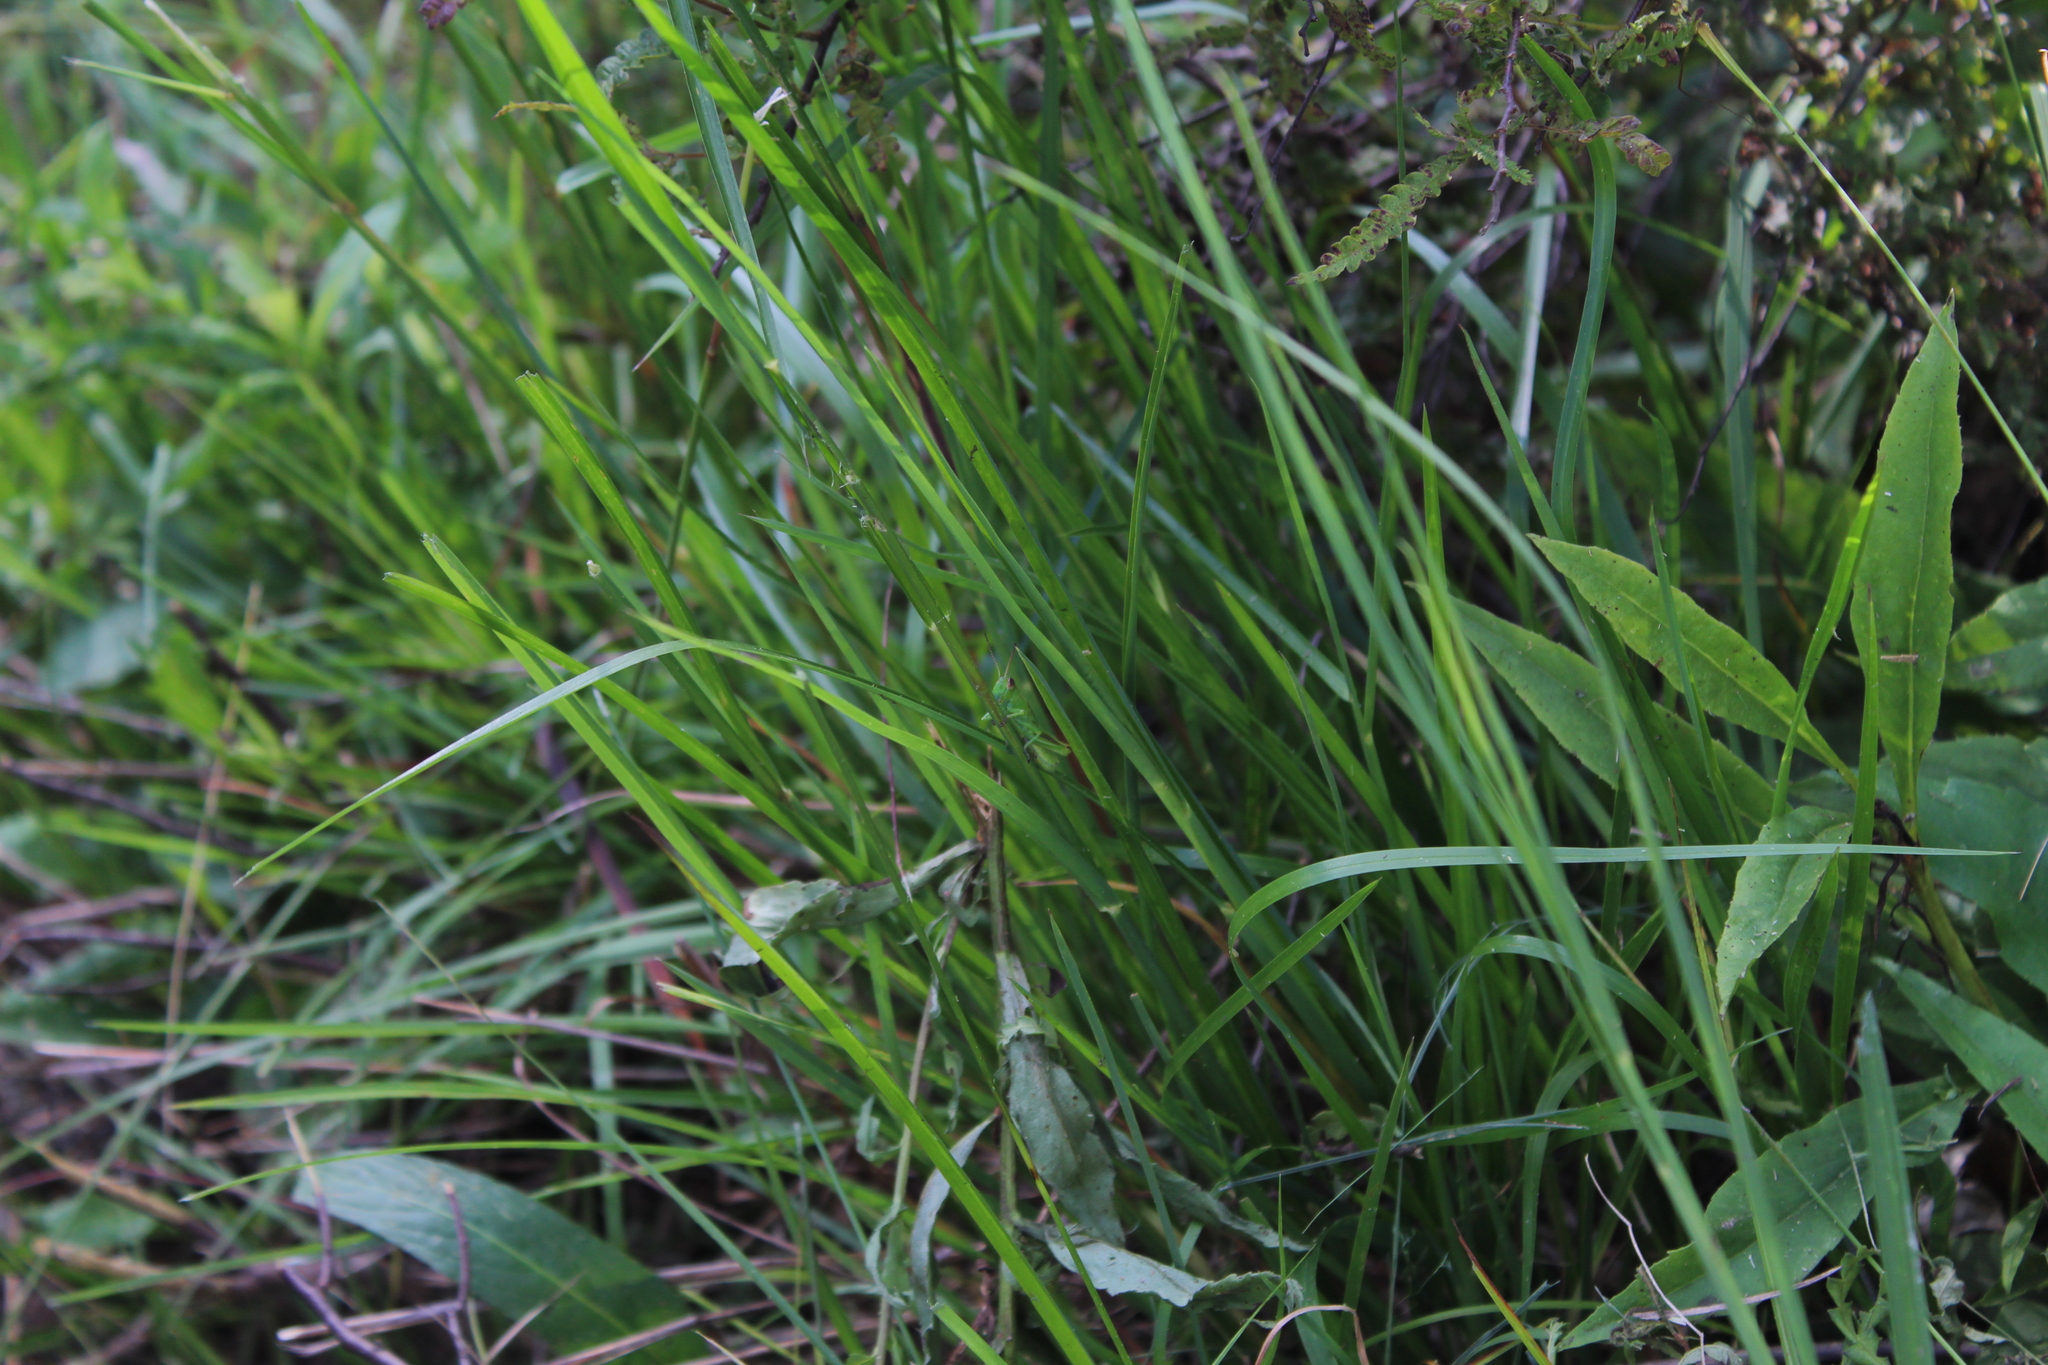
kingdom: Animalia
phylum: Arthropoda
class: Insecta
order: Orthoptera
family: Acrididae
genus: Melanoplus
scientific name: Melanoplus
